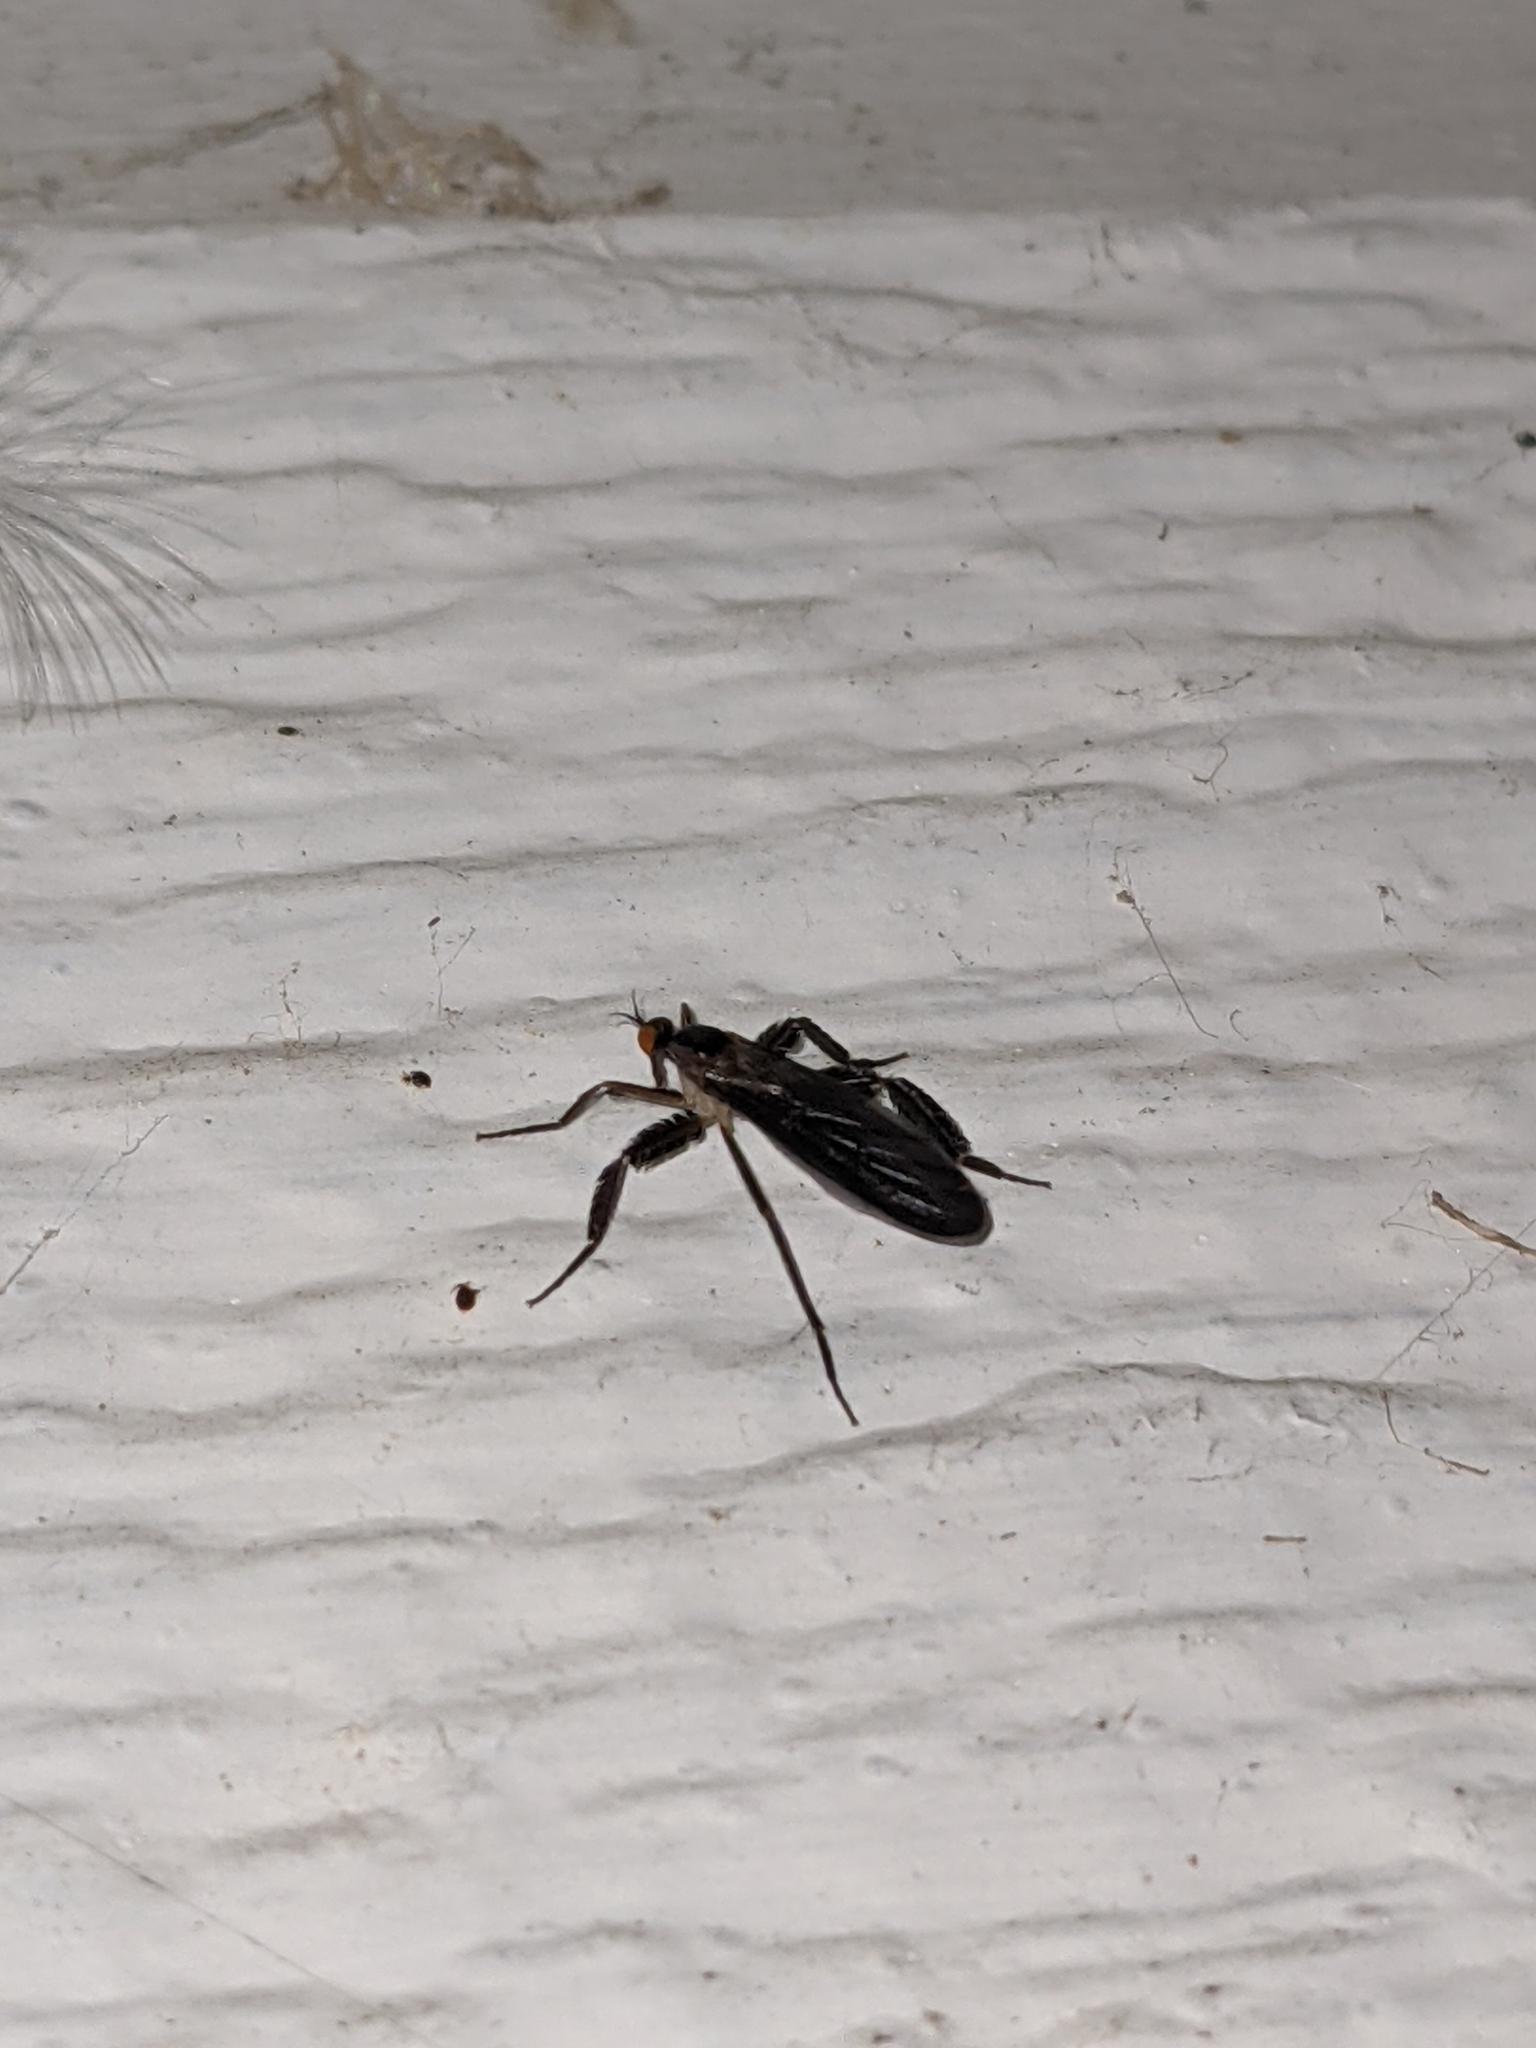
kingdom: Animalia
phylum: Arthropoda
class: Insecta
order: Diptera
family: Empididae
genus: Rhamphomyia
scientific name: Rhamphomyia longicauda
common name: Long-tailed dance fly
